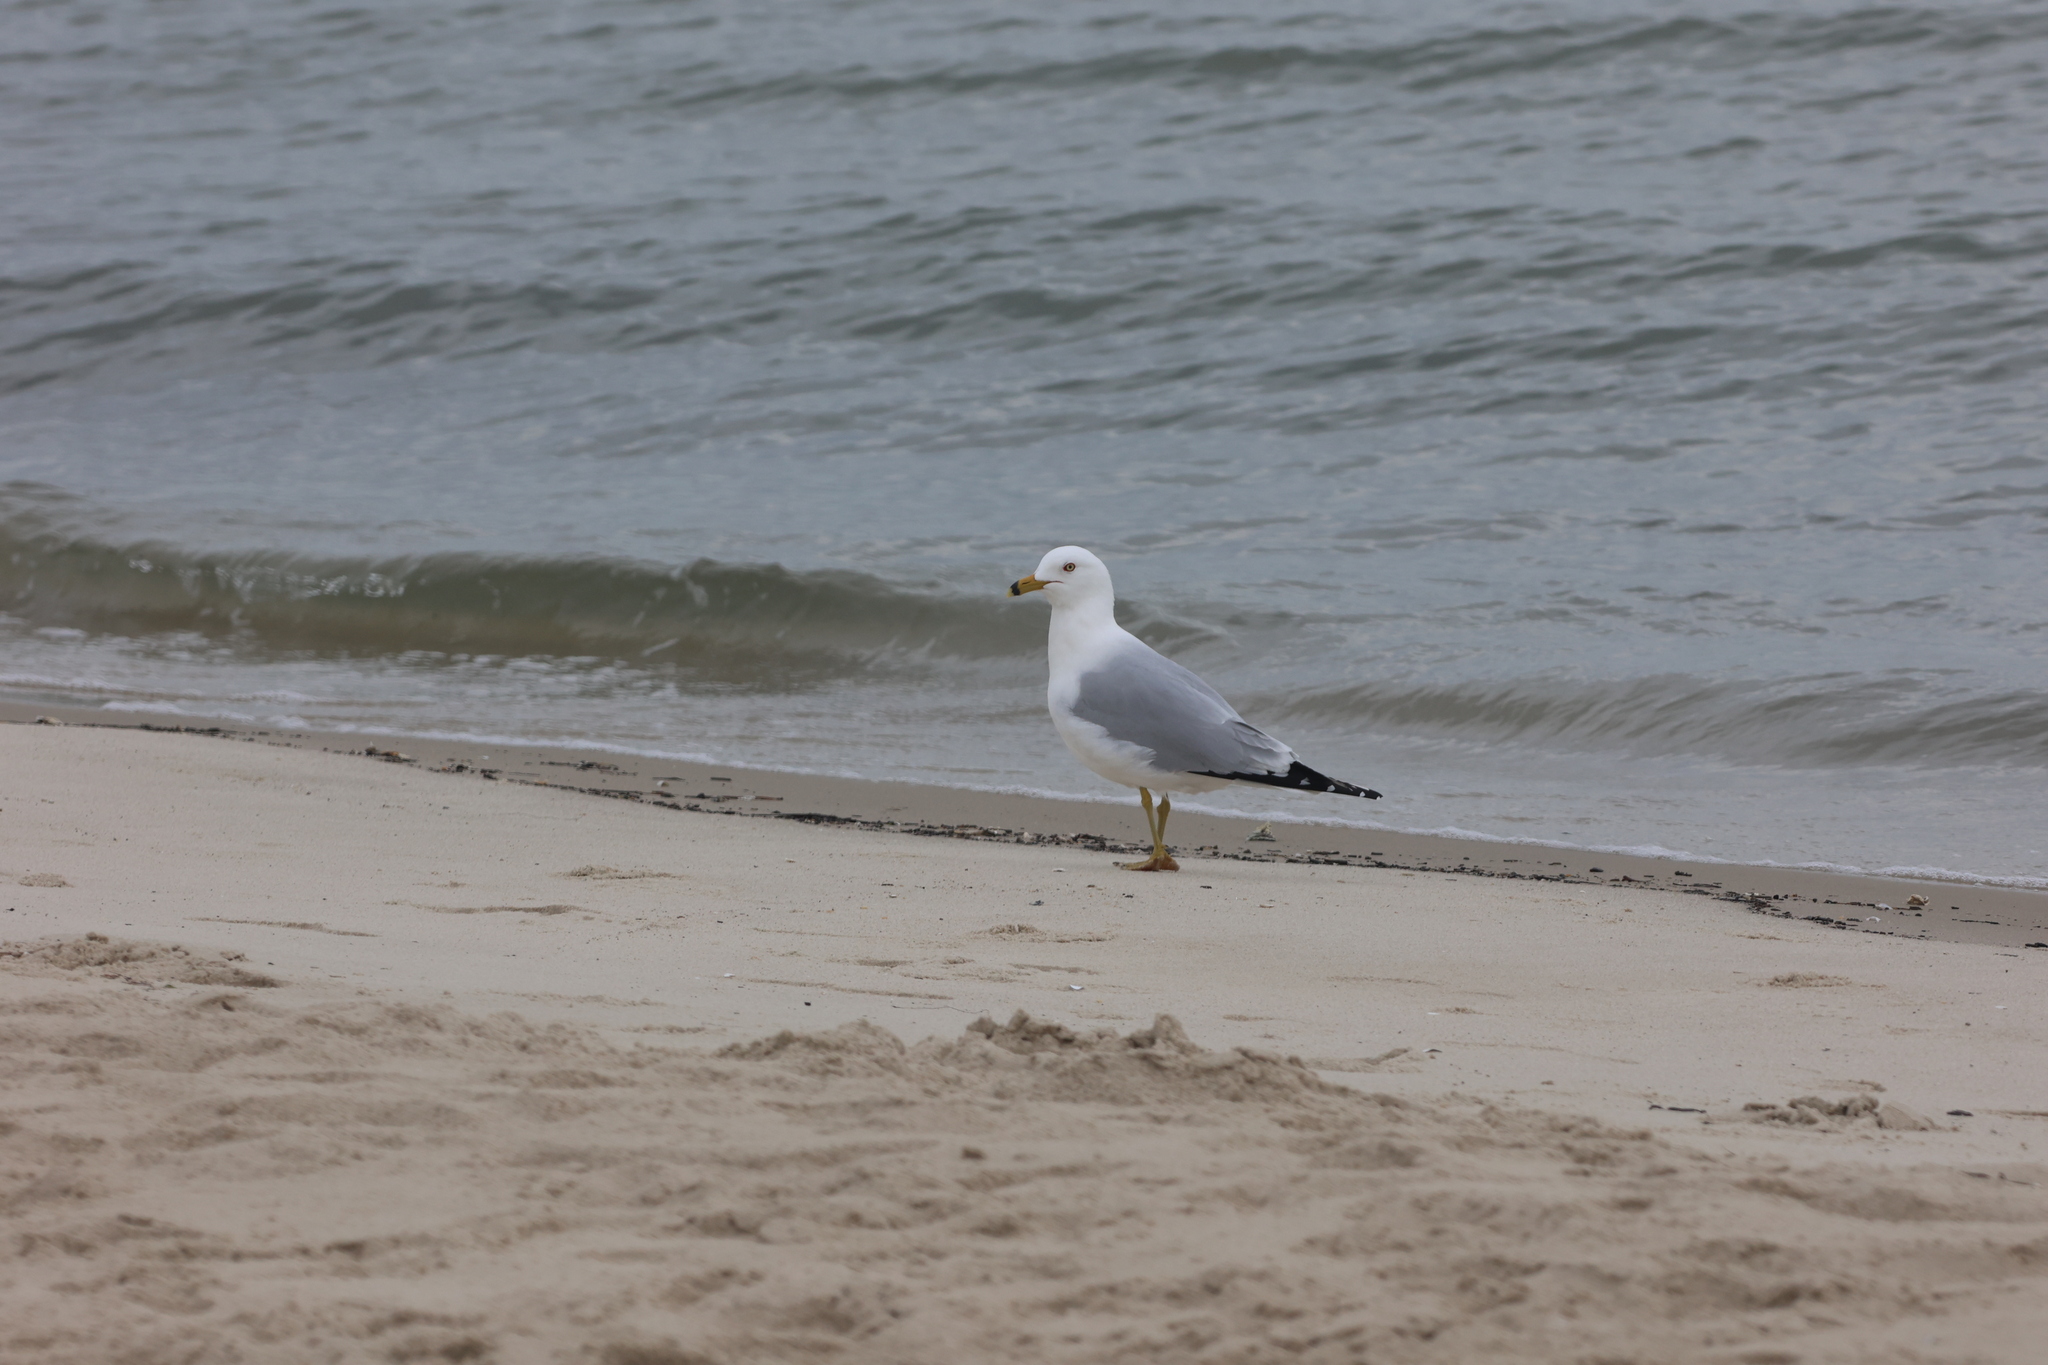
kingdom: Animalia
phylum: Chordata
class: Aves
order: Charadriiformes
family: Laridae
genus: Larus
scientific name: Larus delawarensis
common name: Ring-billed gull
